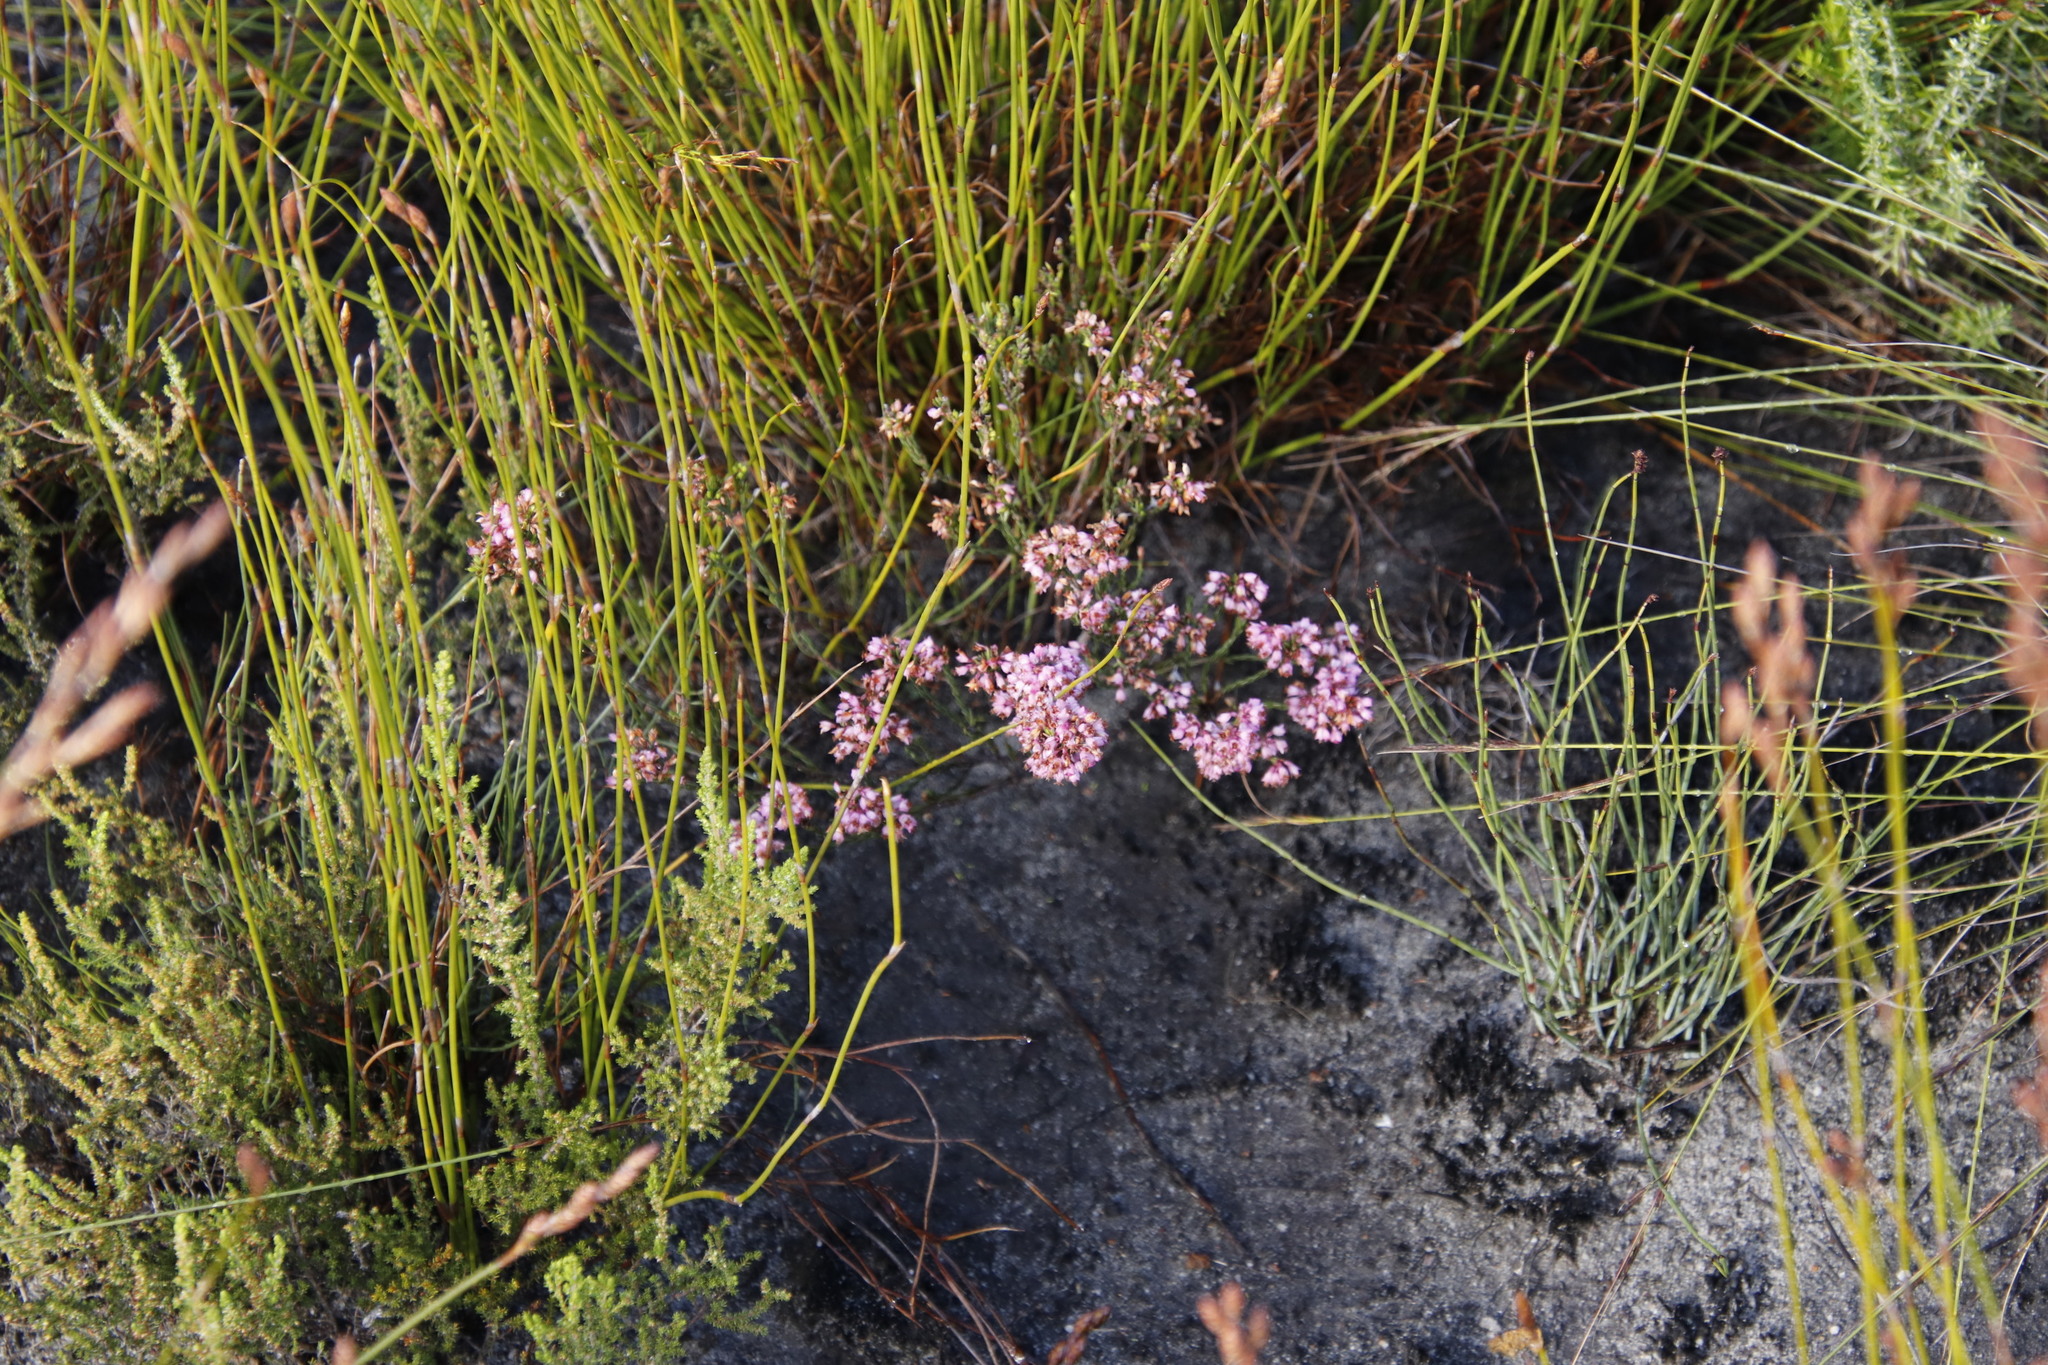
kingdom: Plantae
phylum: Tracheophyta
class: Magnoliopsida
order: Ericales
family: Ericaceae
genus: Erica
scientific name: Erica corifolia
